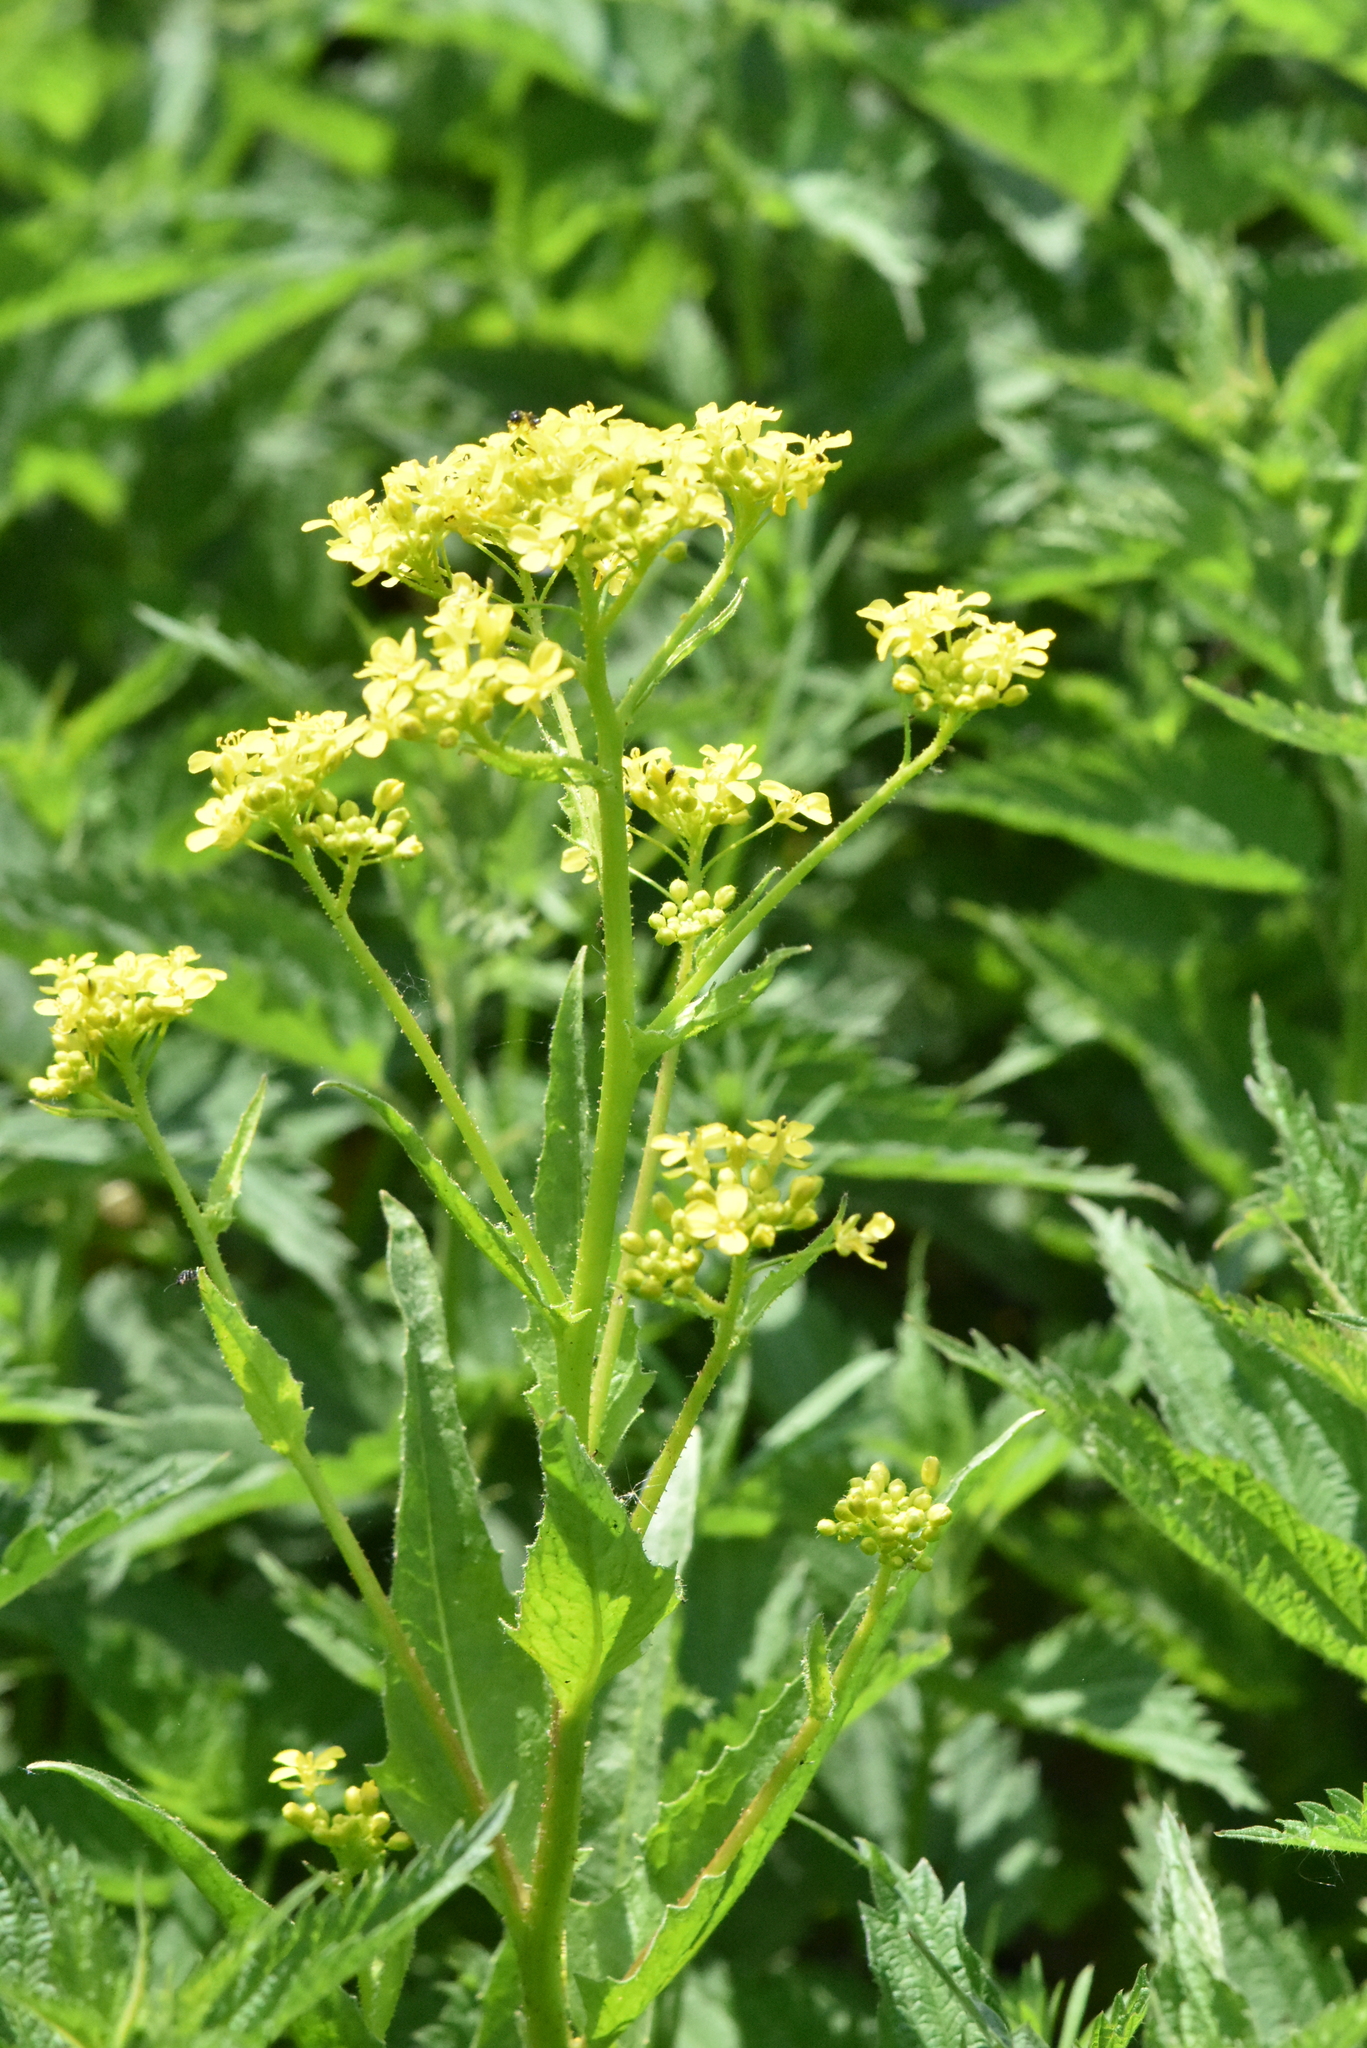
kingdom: Plantae
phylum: Tracheophyta
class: Magnoliopsida
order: Brassicales
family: Brassicaceae
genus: Bunias
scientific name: Bunias orientalis
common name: Warty-cabbage
